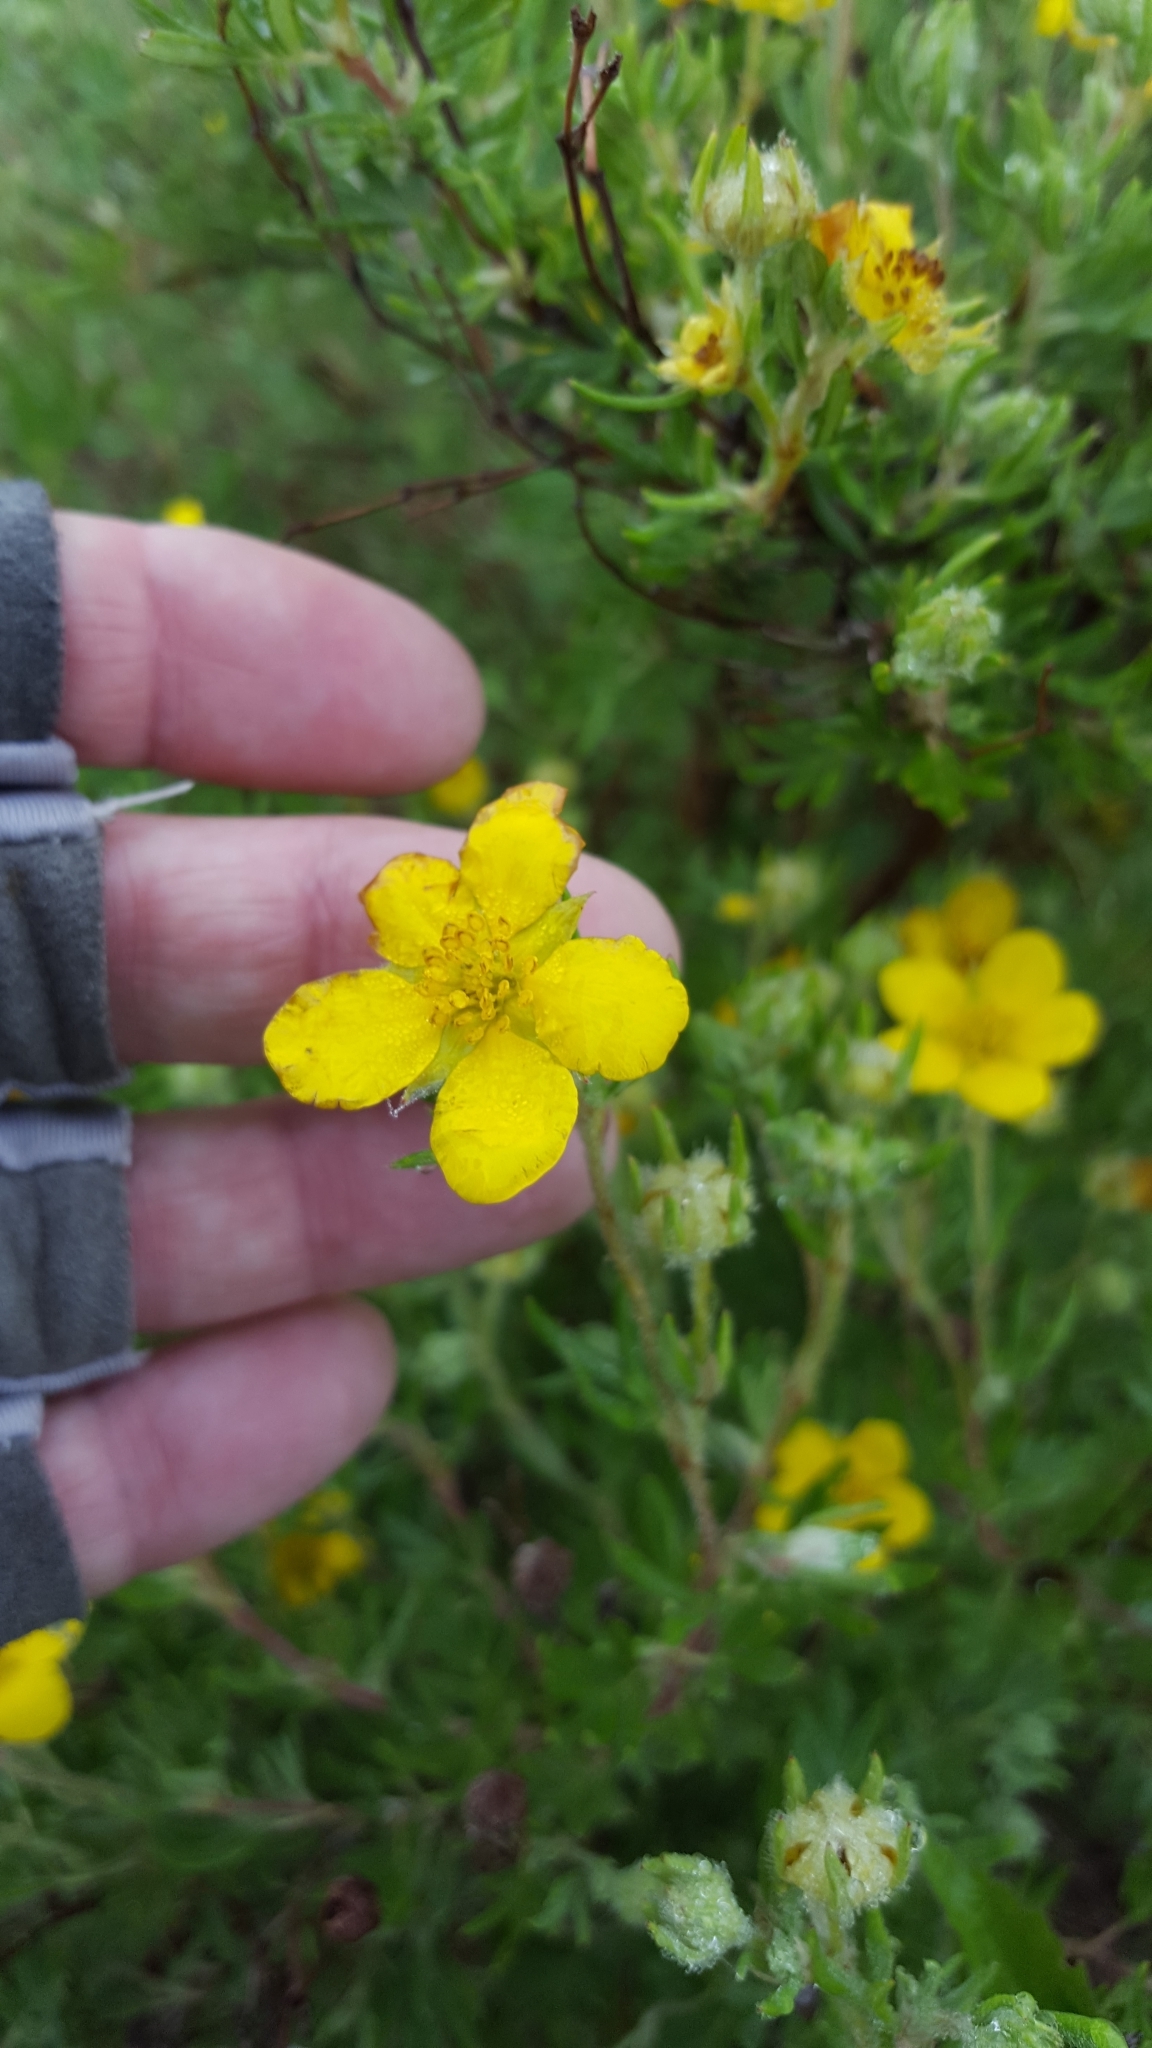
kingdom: Plantae
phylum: Tracheophyta
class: Magnoliopsida
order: Rosales
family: Rosaceae
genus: Dasiphora
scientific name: Dasiphora fruticosa
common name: Shrubby cinquefoil
